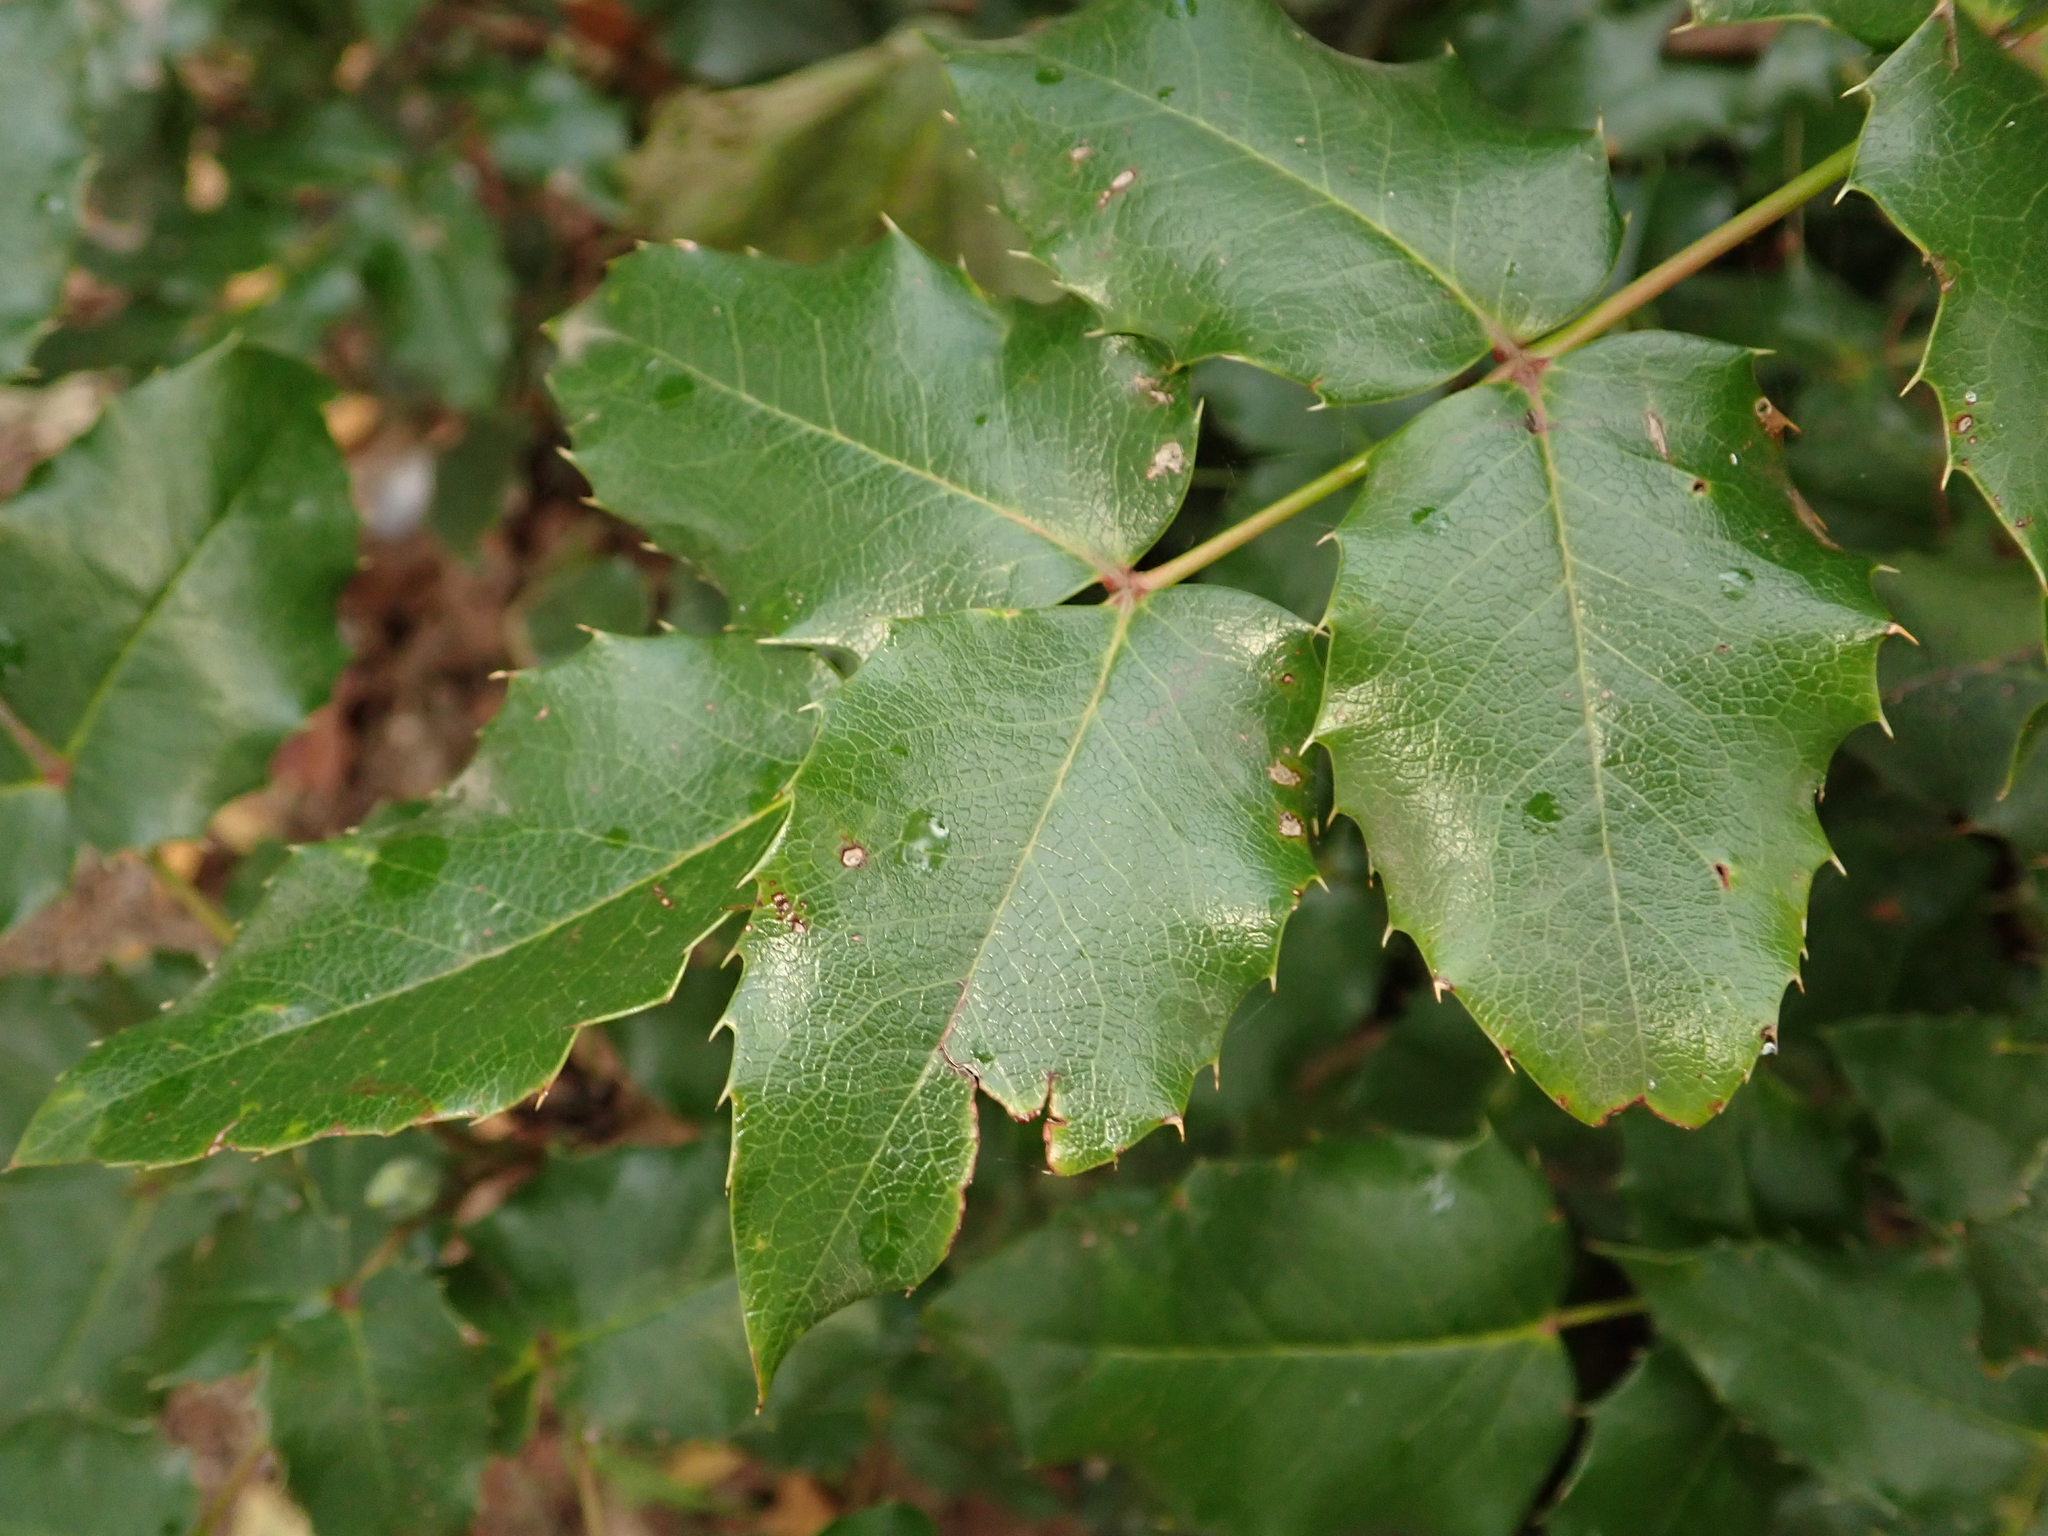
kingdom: Plantae
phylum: Tracheophyta
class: Magnoliopsida
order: Ranunculales
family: Berberidaceae
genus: Mahonia
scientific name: Mahonia aquifolium
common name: Oregon-grape
